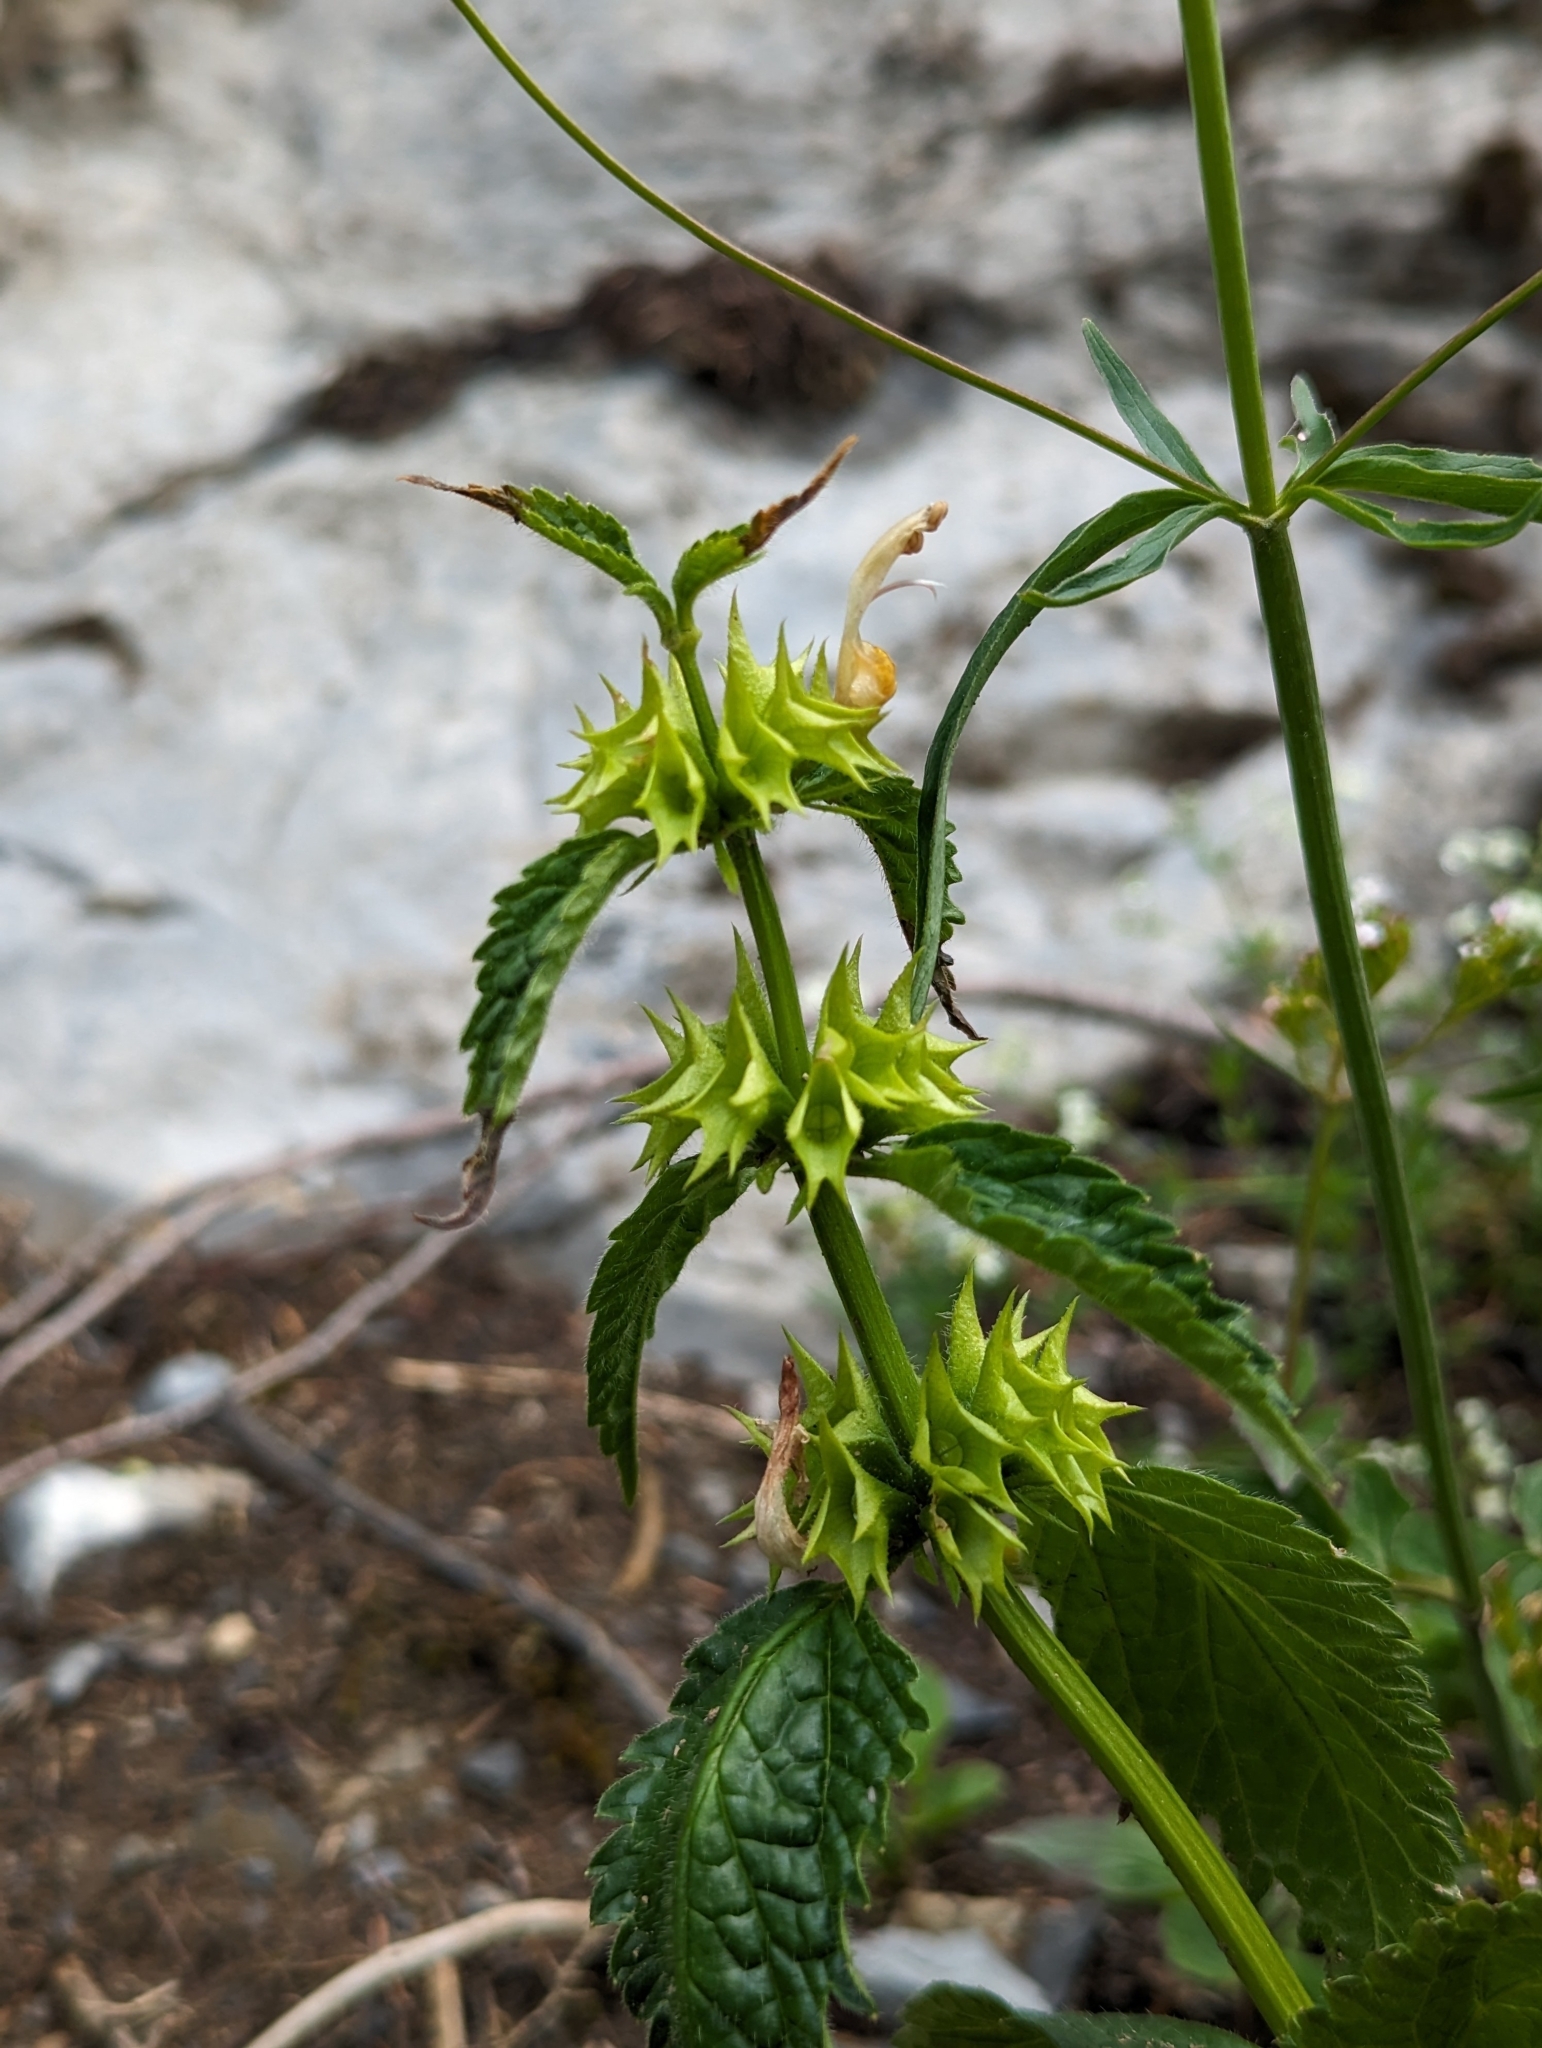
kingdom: Plantae
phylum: Tracheophyta
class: Magnoliopsida
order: Lamiales
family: Lamiaceae
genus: Lamium
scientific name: Lamium galeobdolon
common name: Yellow archangel
